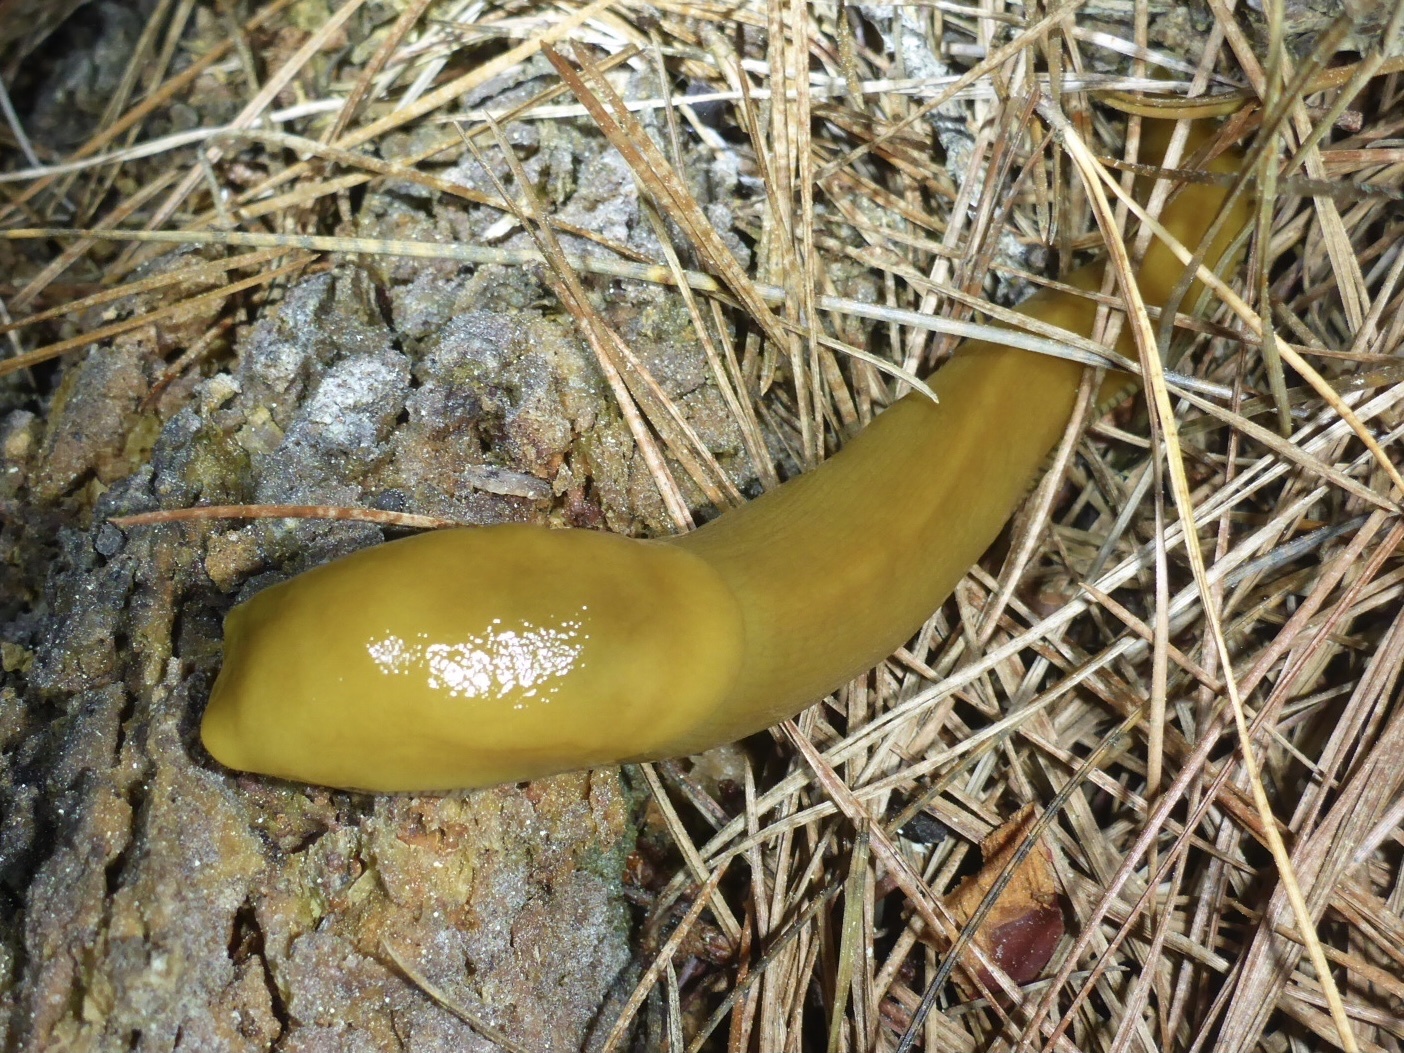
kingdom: Animalia
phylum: Mollusca
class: Gastropoda
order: Stylommatophora
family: Ariolimacidae
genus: Ariolimax
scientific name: Ariolimax californicus
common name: California banana slug
